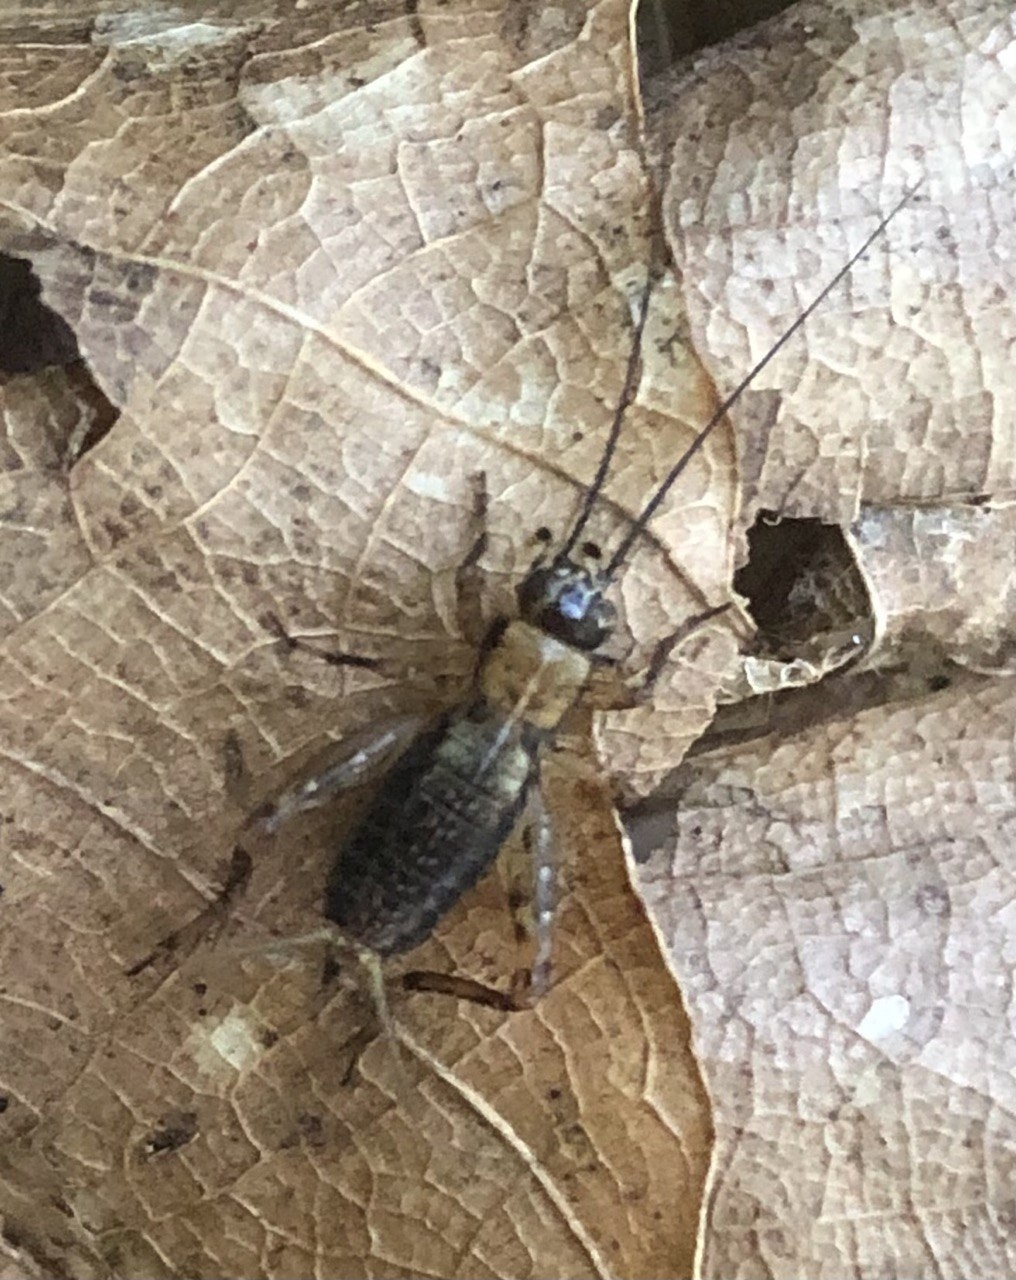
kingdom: Animalia
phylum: Arthropoda
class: Insecta
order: Orthoptera
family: Trigonidiidae
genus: Nemobius
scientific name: Nemobius sylvestris
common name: Wood-cricket
